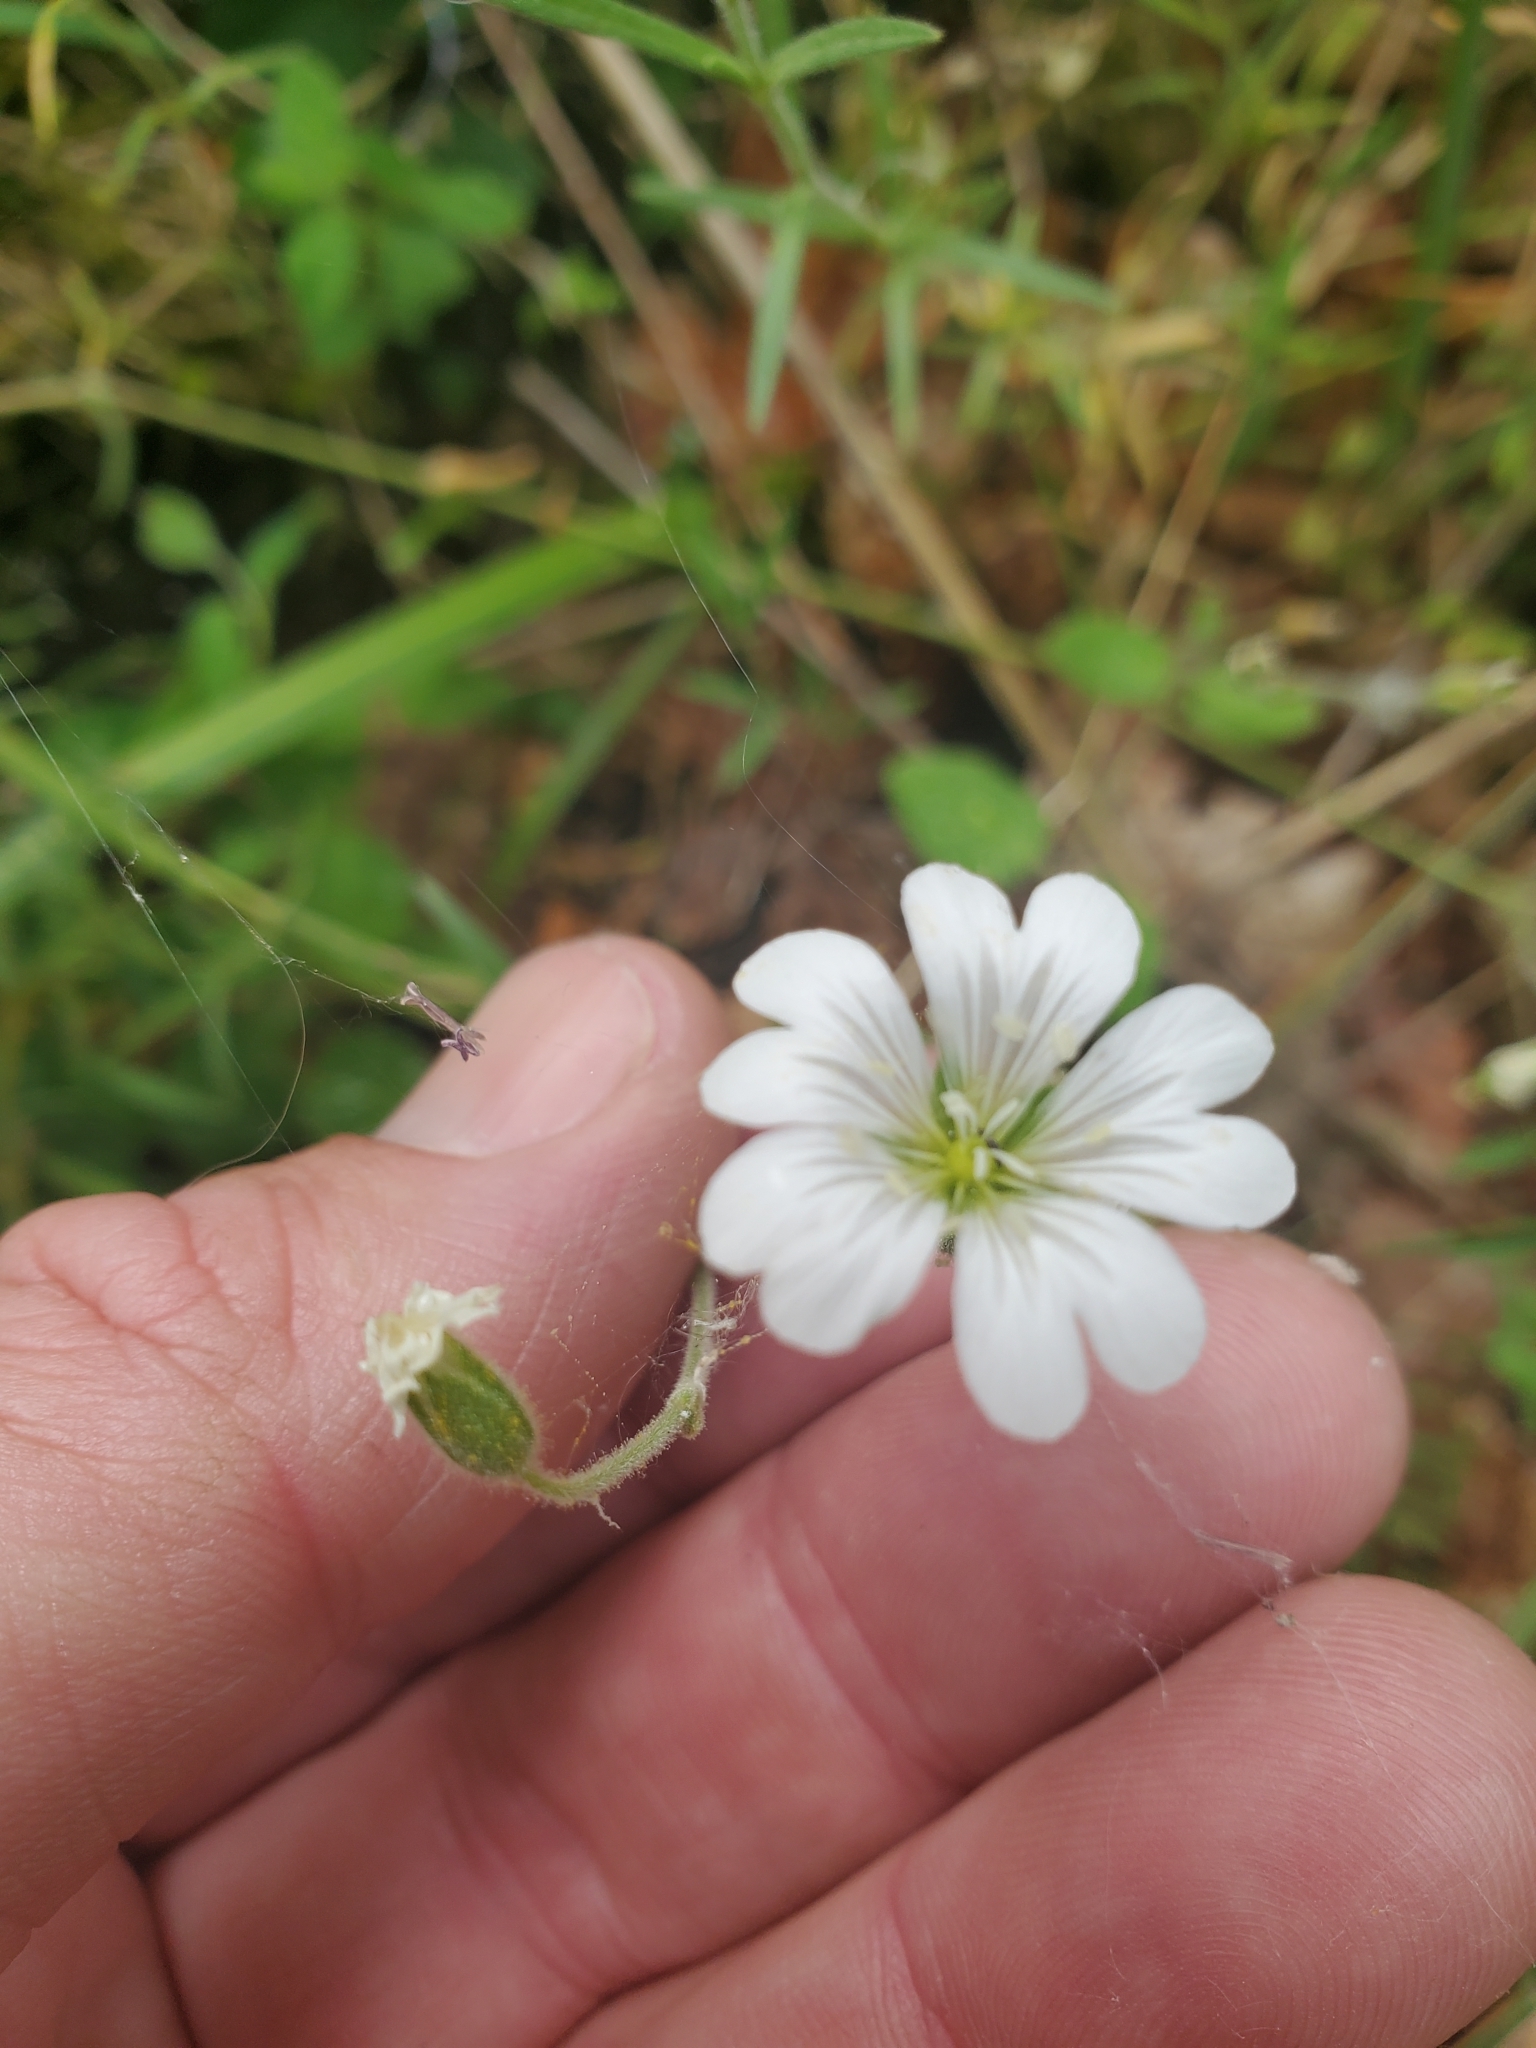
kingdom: Plantae
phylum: Tracheophyta
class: Magnoliopsida
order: Caryophyllales
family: Caryophyllaceae
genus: Cerastium
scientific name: Cerastium arvense
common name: Field mouse-ear
